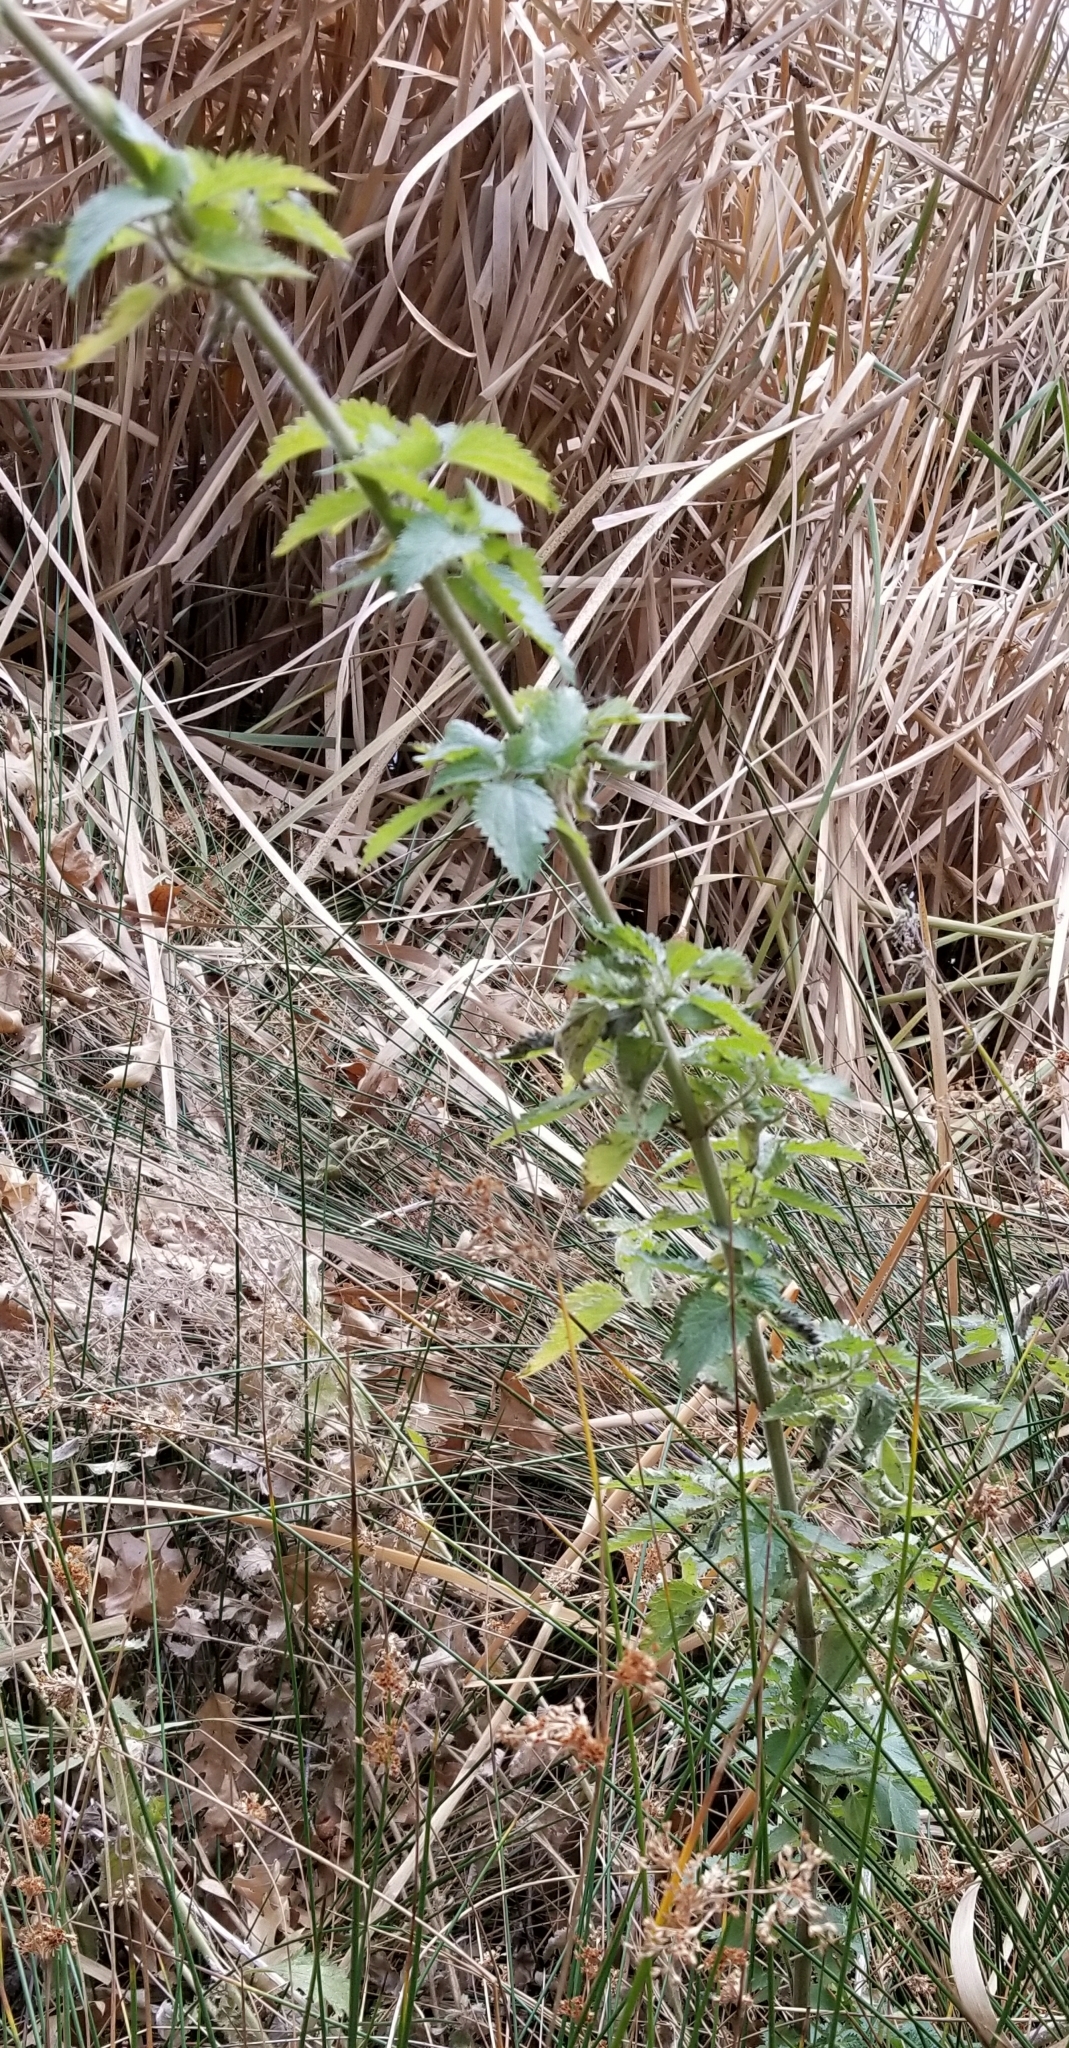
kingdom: Plantae
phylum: Tracheophyta
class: Magnoliopsida
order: Rosales
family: Urticaceae
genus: Urtica
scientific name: Urtica dioica
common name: Common nettle
